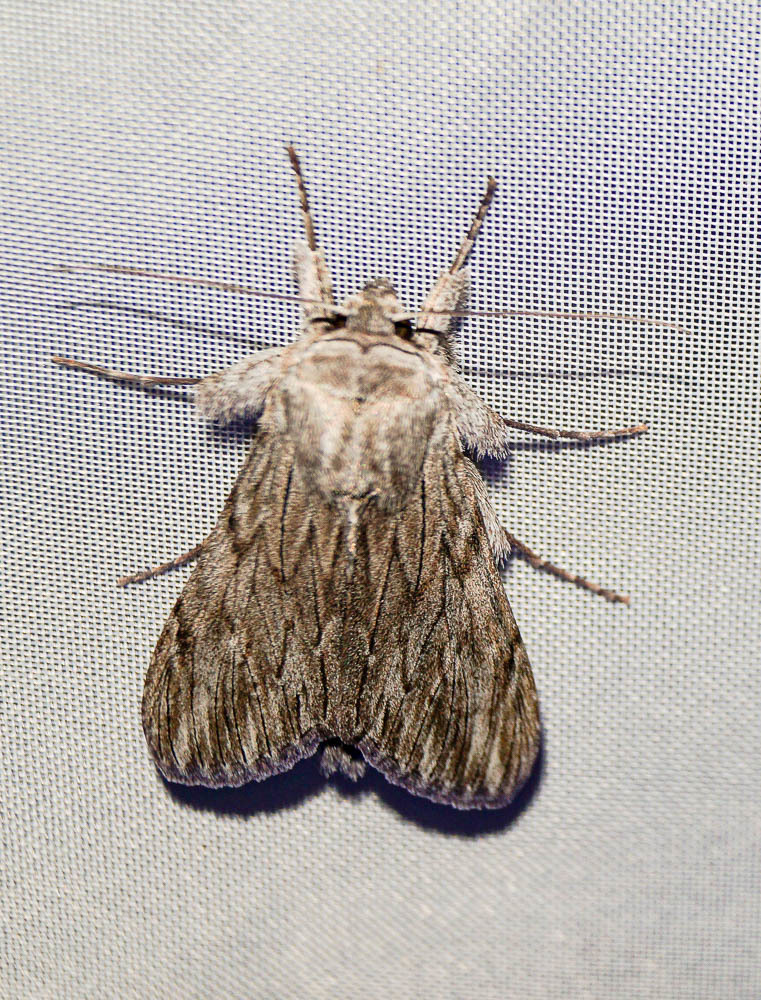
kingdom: Animalia
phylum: Arthropoda
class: Insecta
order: Lepidoptera
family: Noctuidae
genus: Cucullia
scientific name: Cucullia lactucae
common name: Lettuce shark
